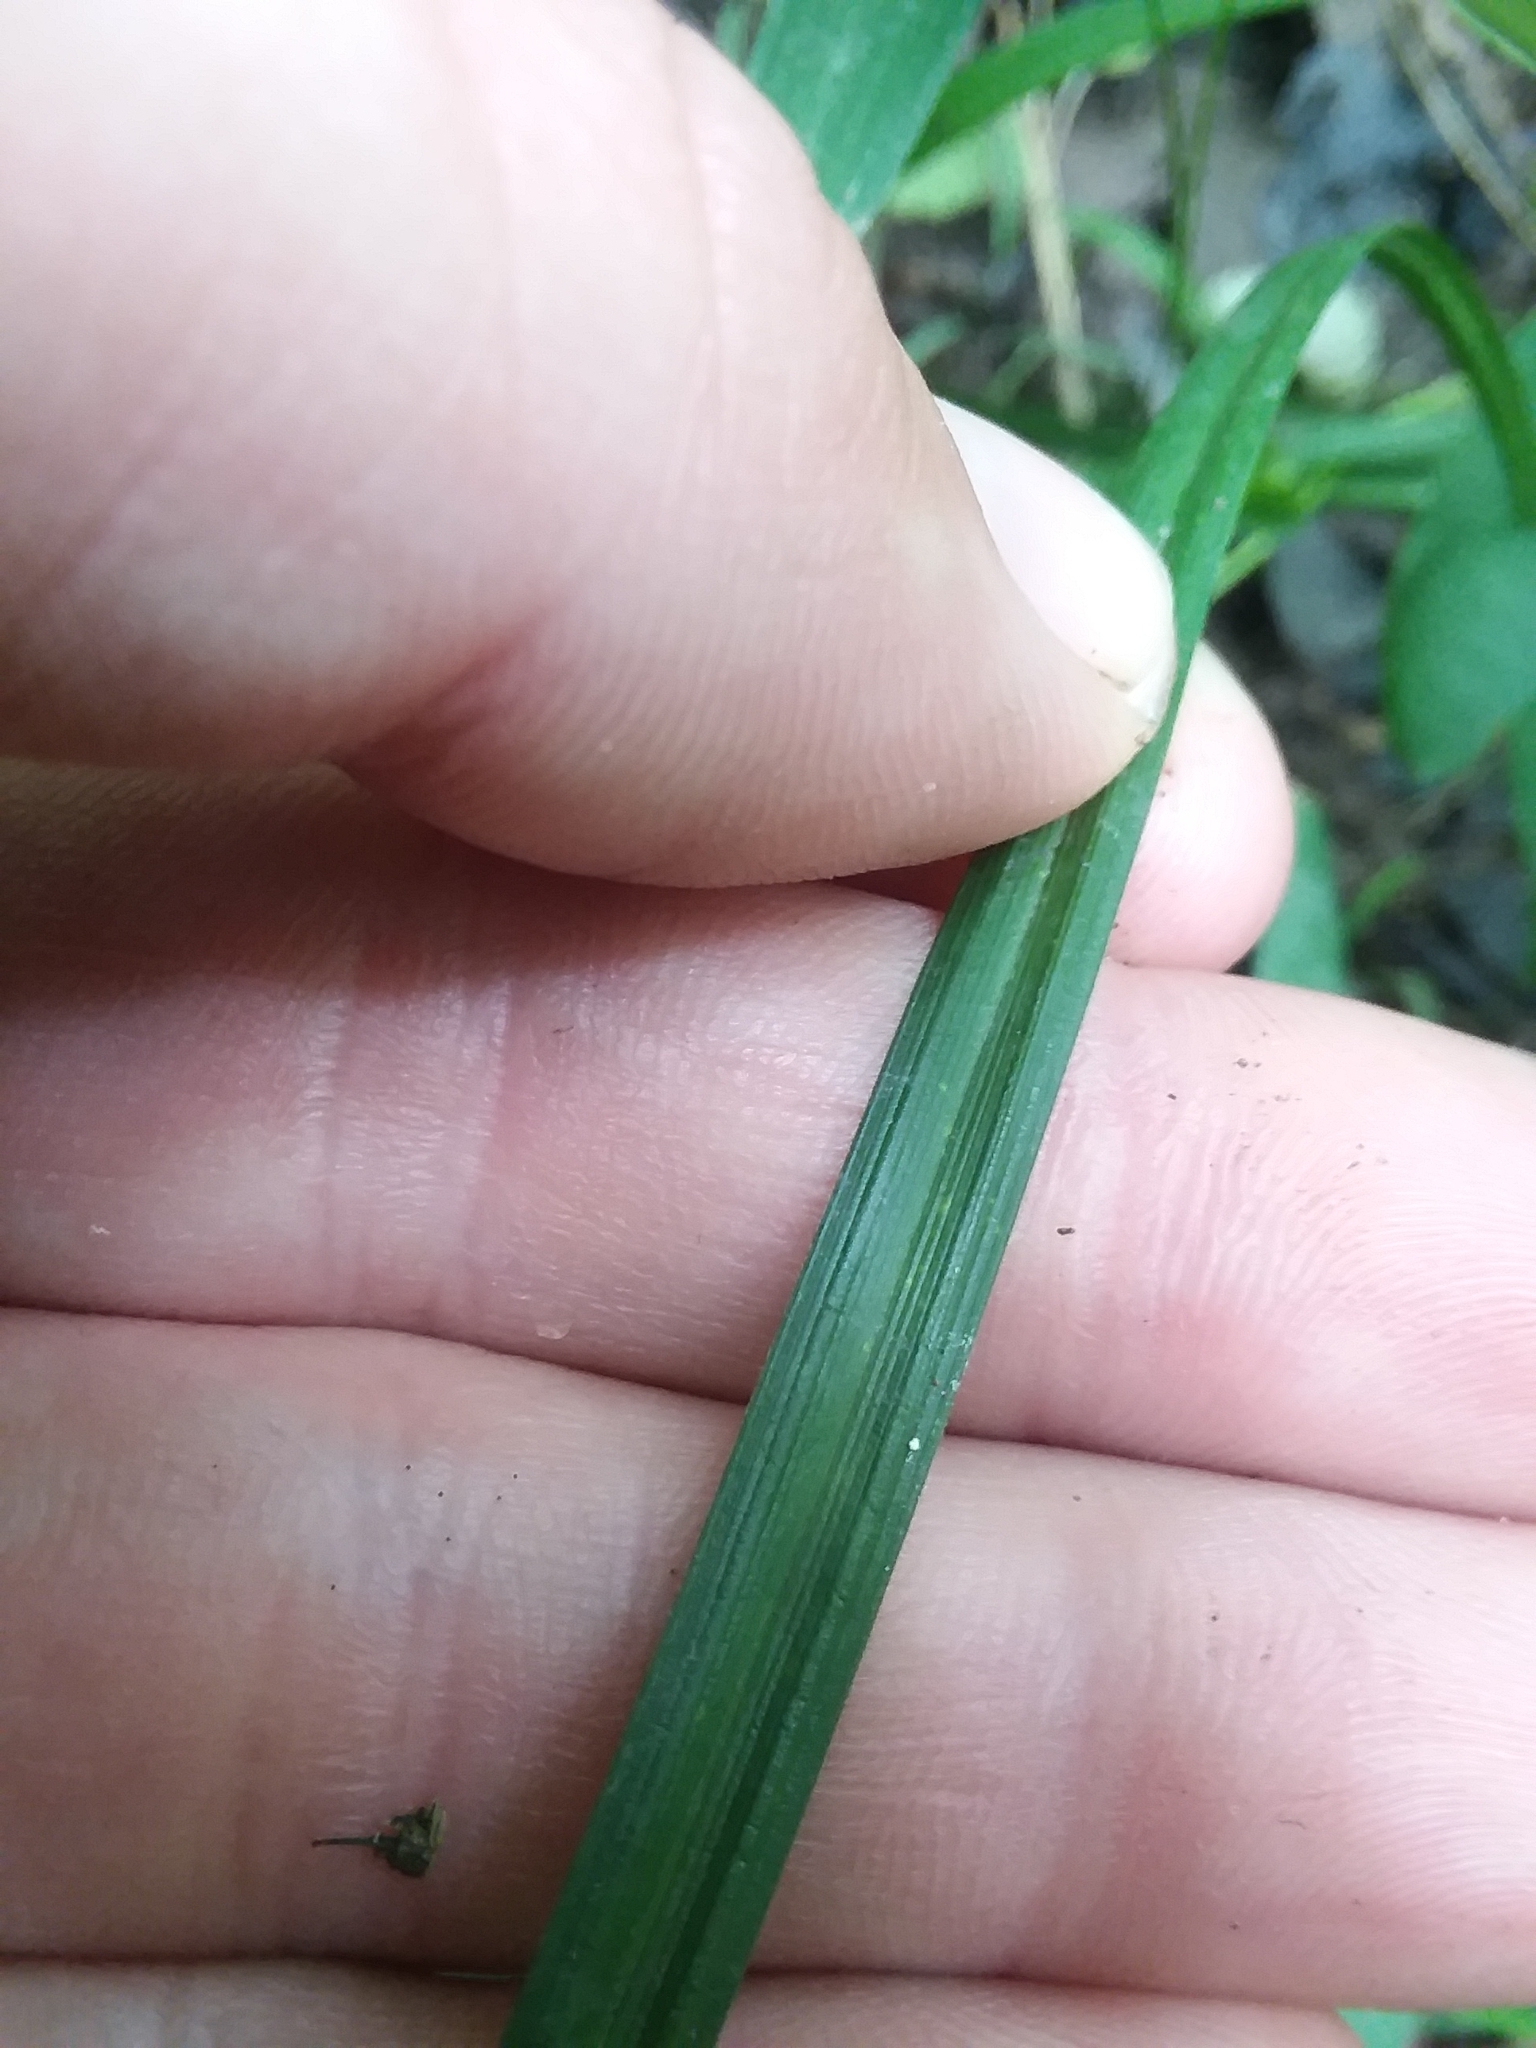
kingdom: Plantae
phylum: Tracheophyta
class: Liliopsida
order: Poales
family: Cyperaceae
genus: Carex
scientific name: Carex vulpinoidea
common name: American fox-sedge
